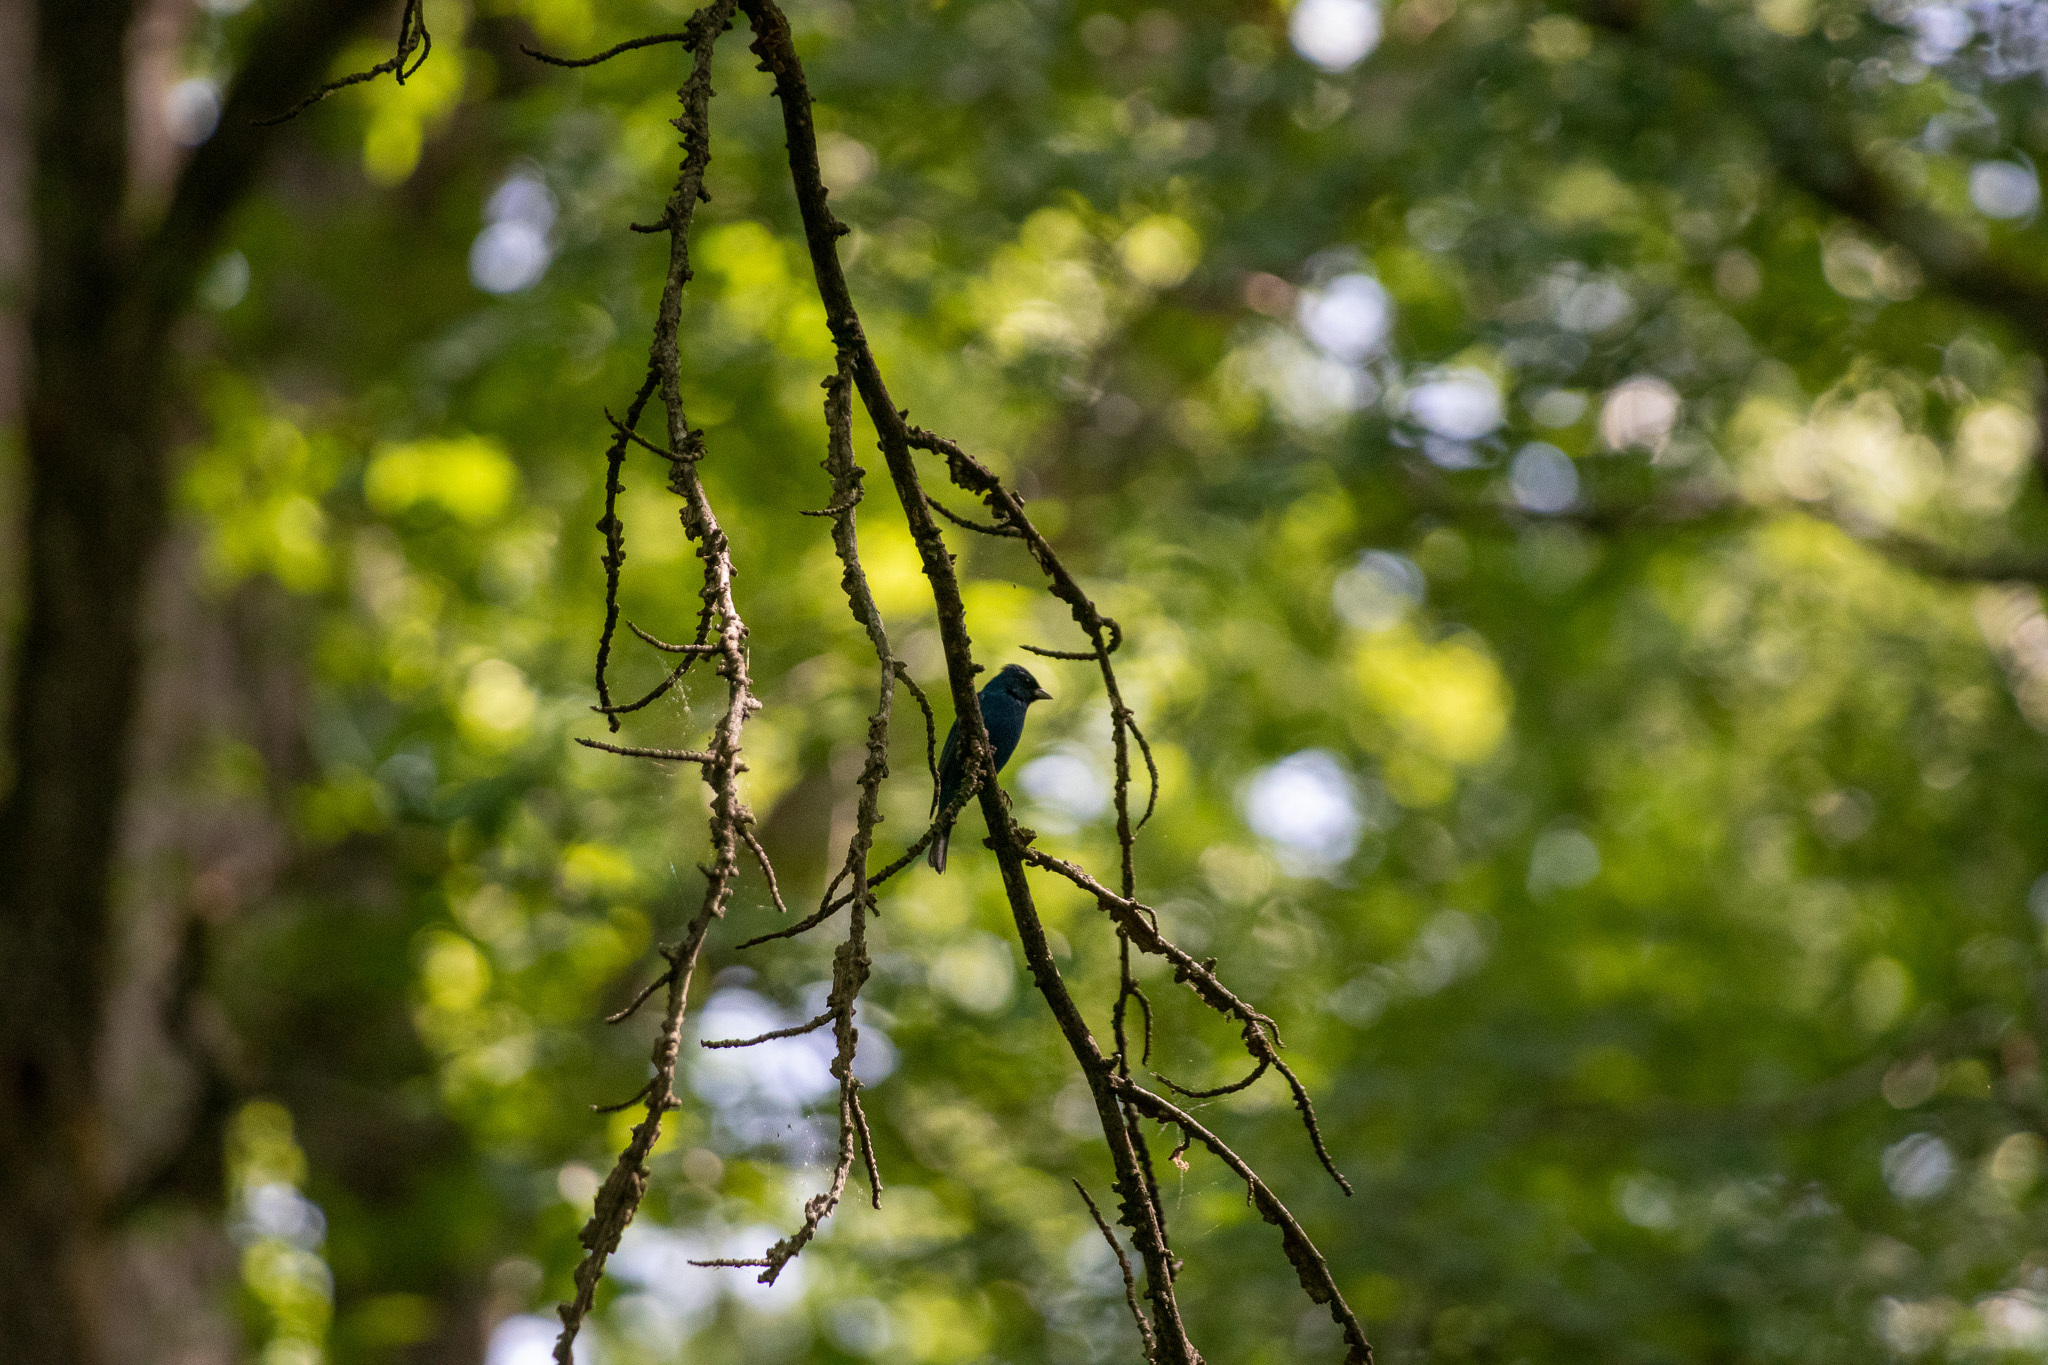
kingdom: Animalia
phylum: Chordata
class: Aves
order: Passeriformes
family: Cardinalidae
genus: Passerina
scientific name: Passerina cyanea
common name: Indigo bunting
